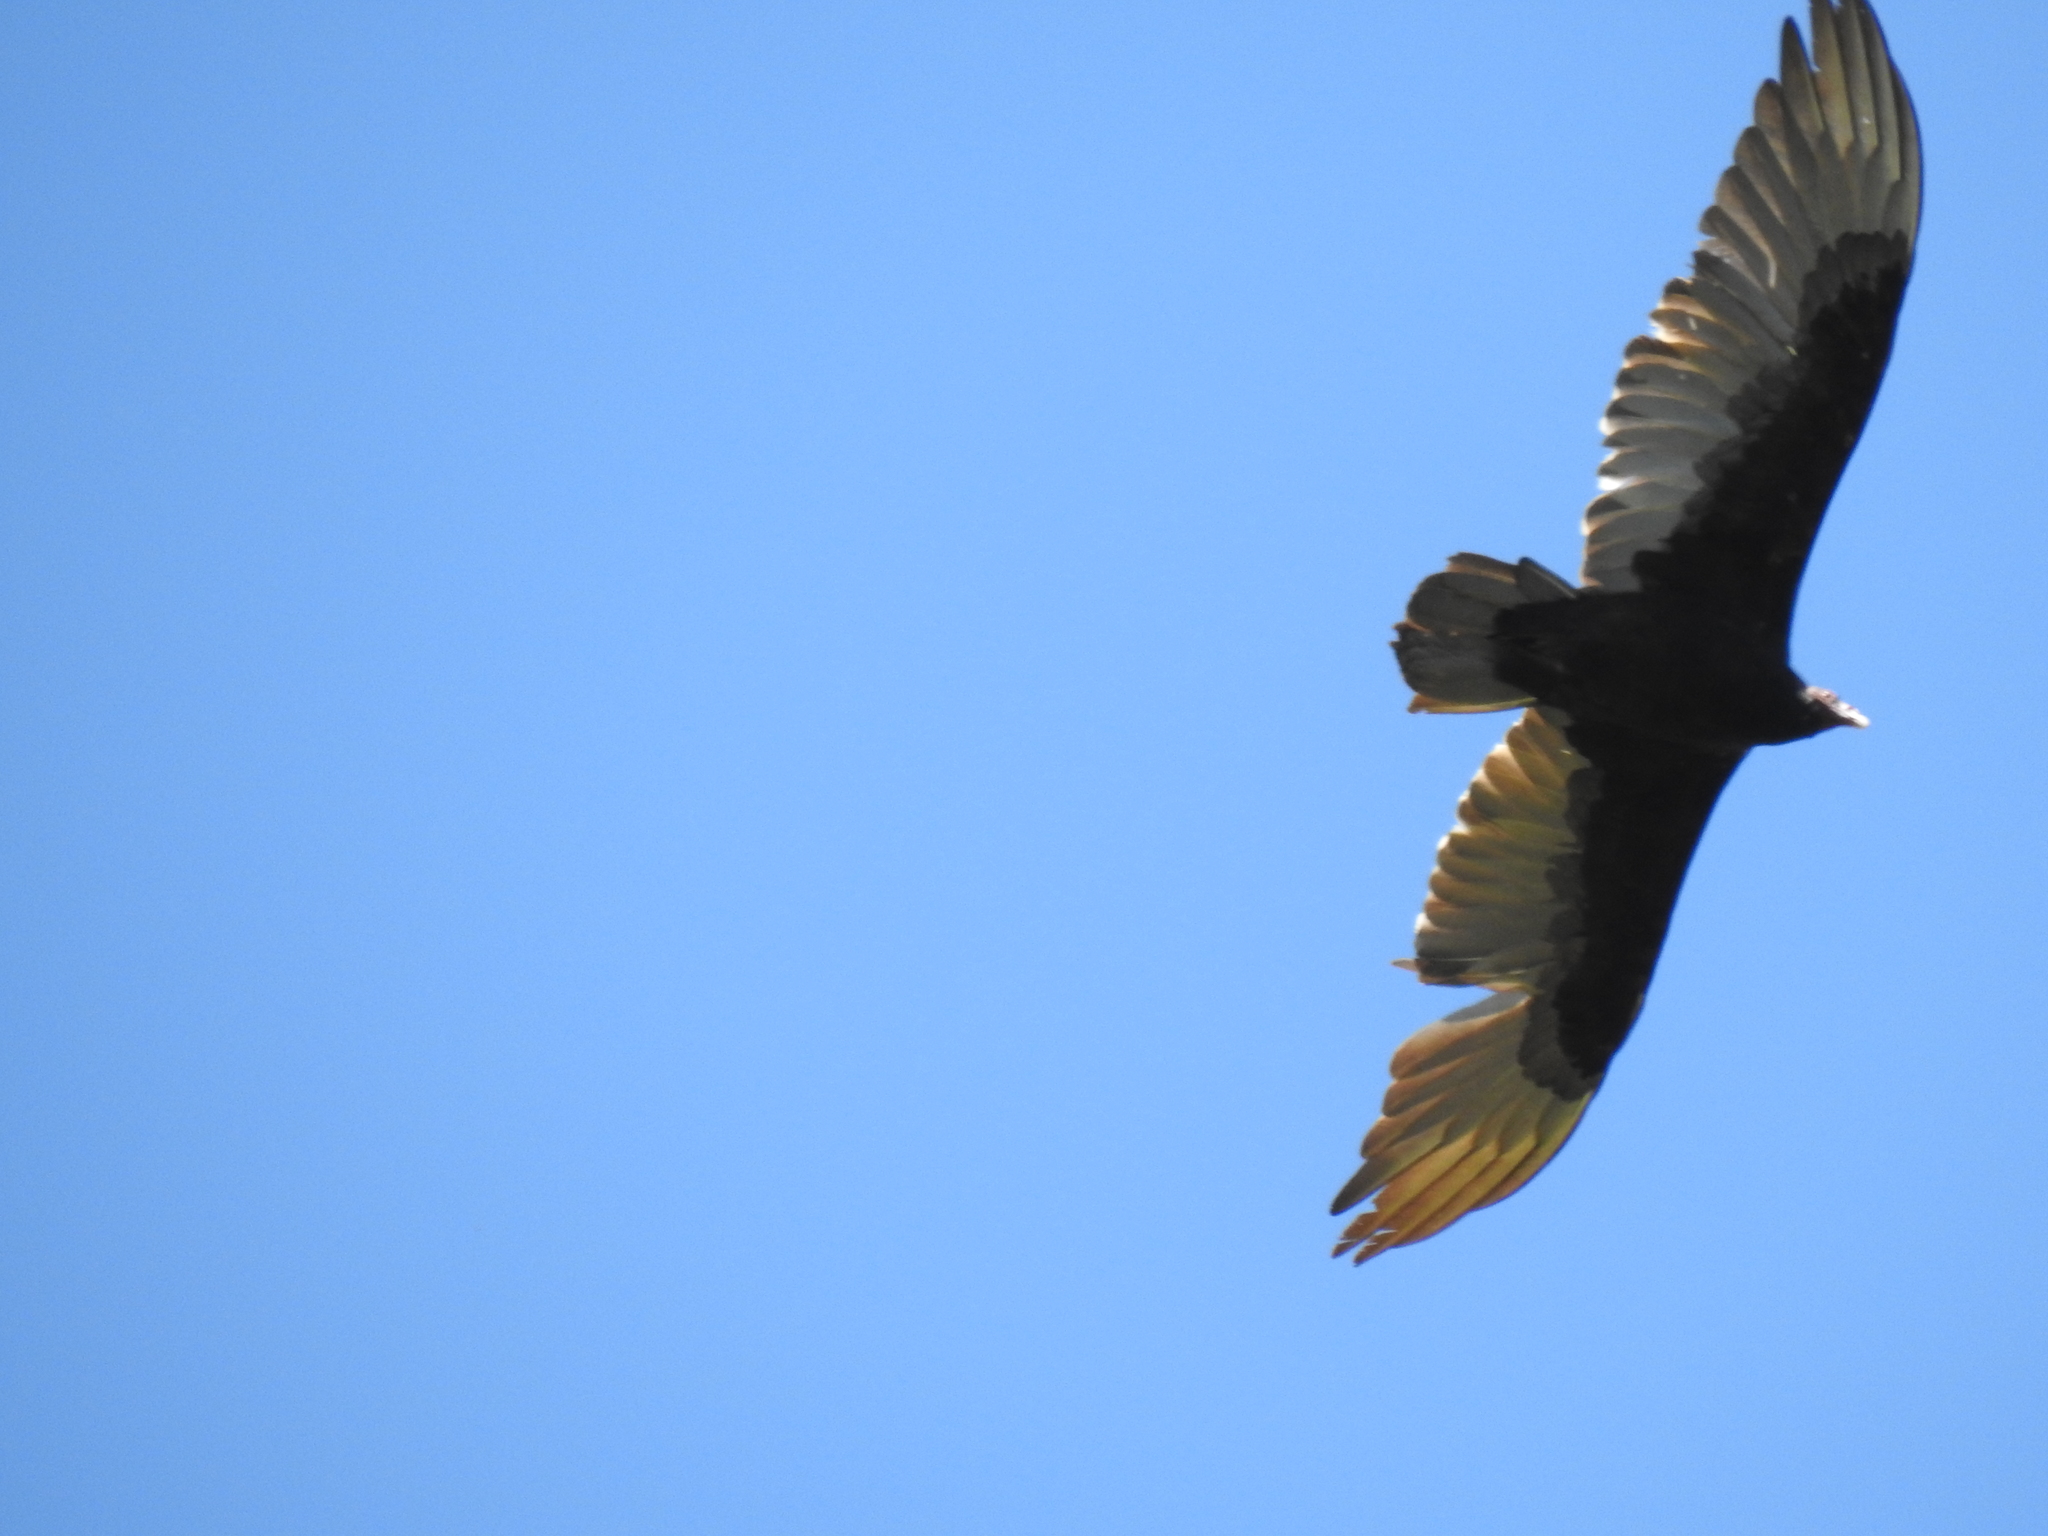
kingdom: Animalia
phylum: Chordata
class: Aves
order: Accipitriformes
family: Cathartidae
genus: Cathartes
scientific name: Cathartes aura
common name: Turkey vulture
